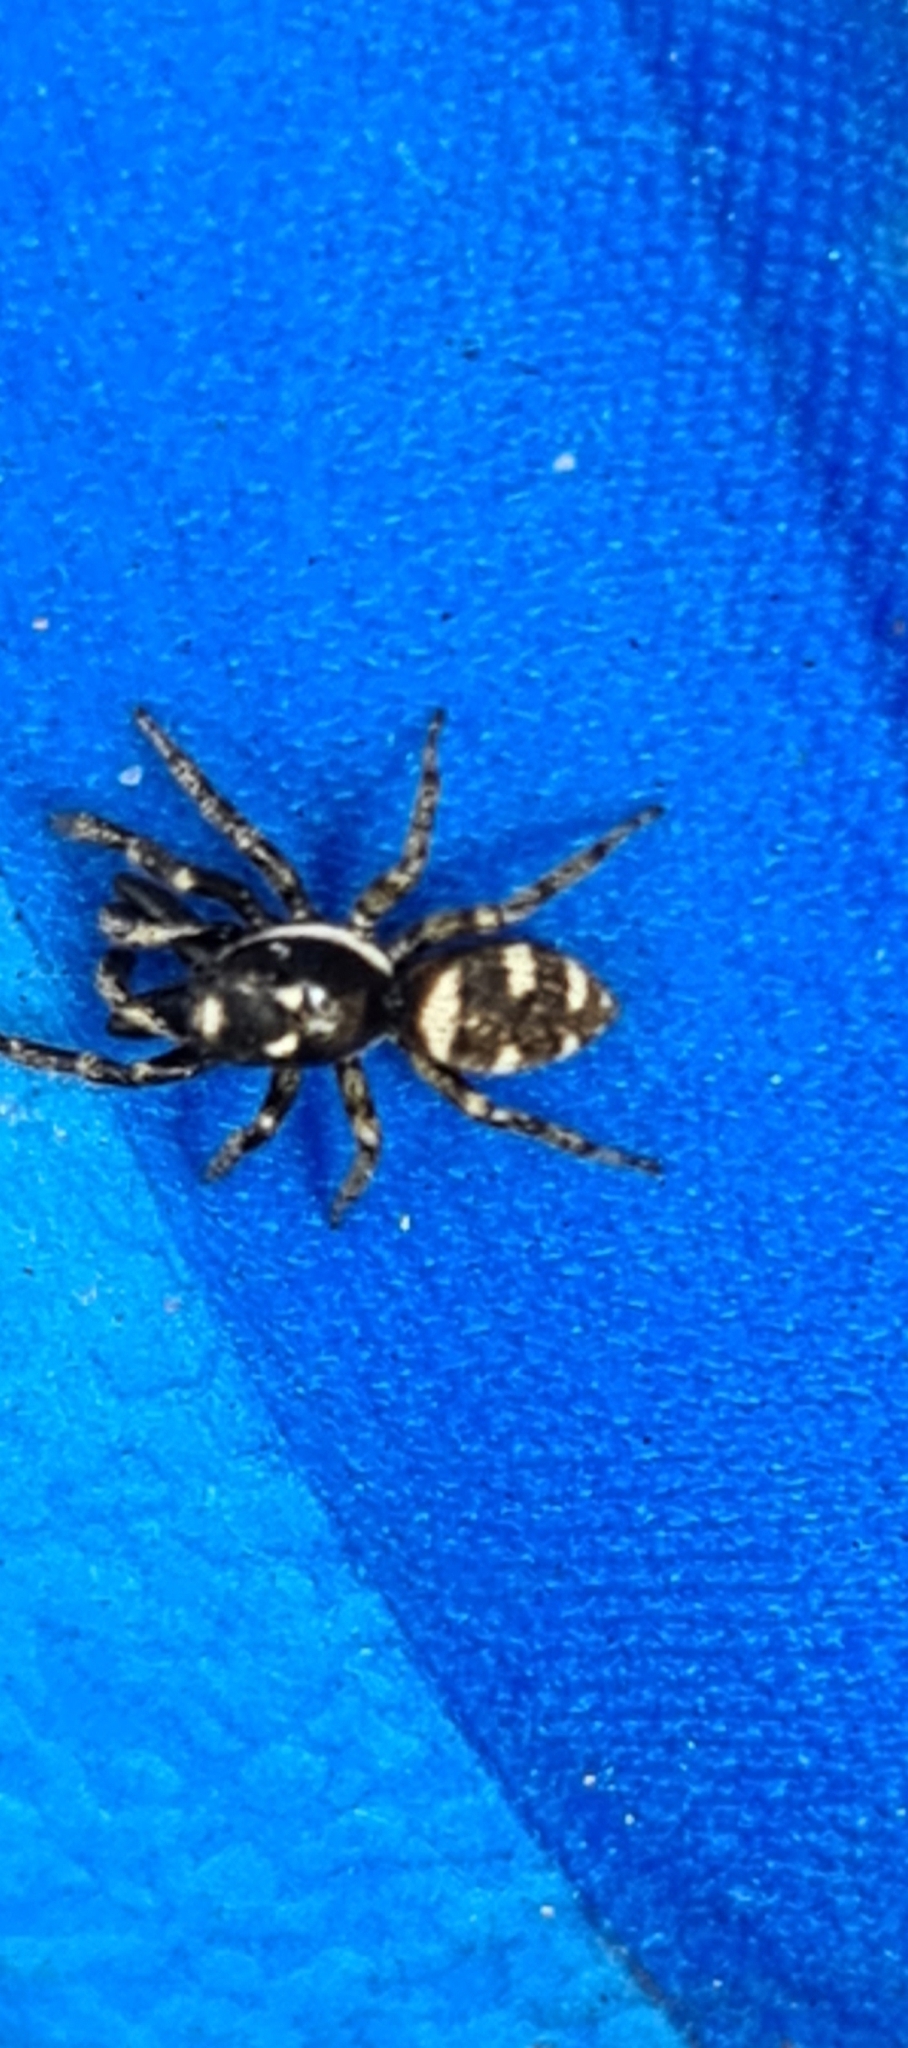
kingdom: Animalia
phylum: Arthropoda
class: Arachnida
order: Araneae
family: Salticidae
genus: Salticus
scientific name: Salticus scenicus
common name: Zebra jumper
